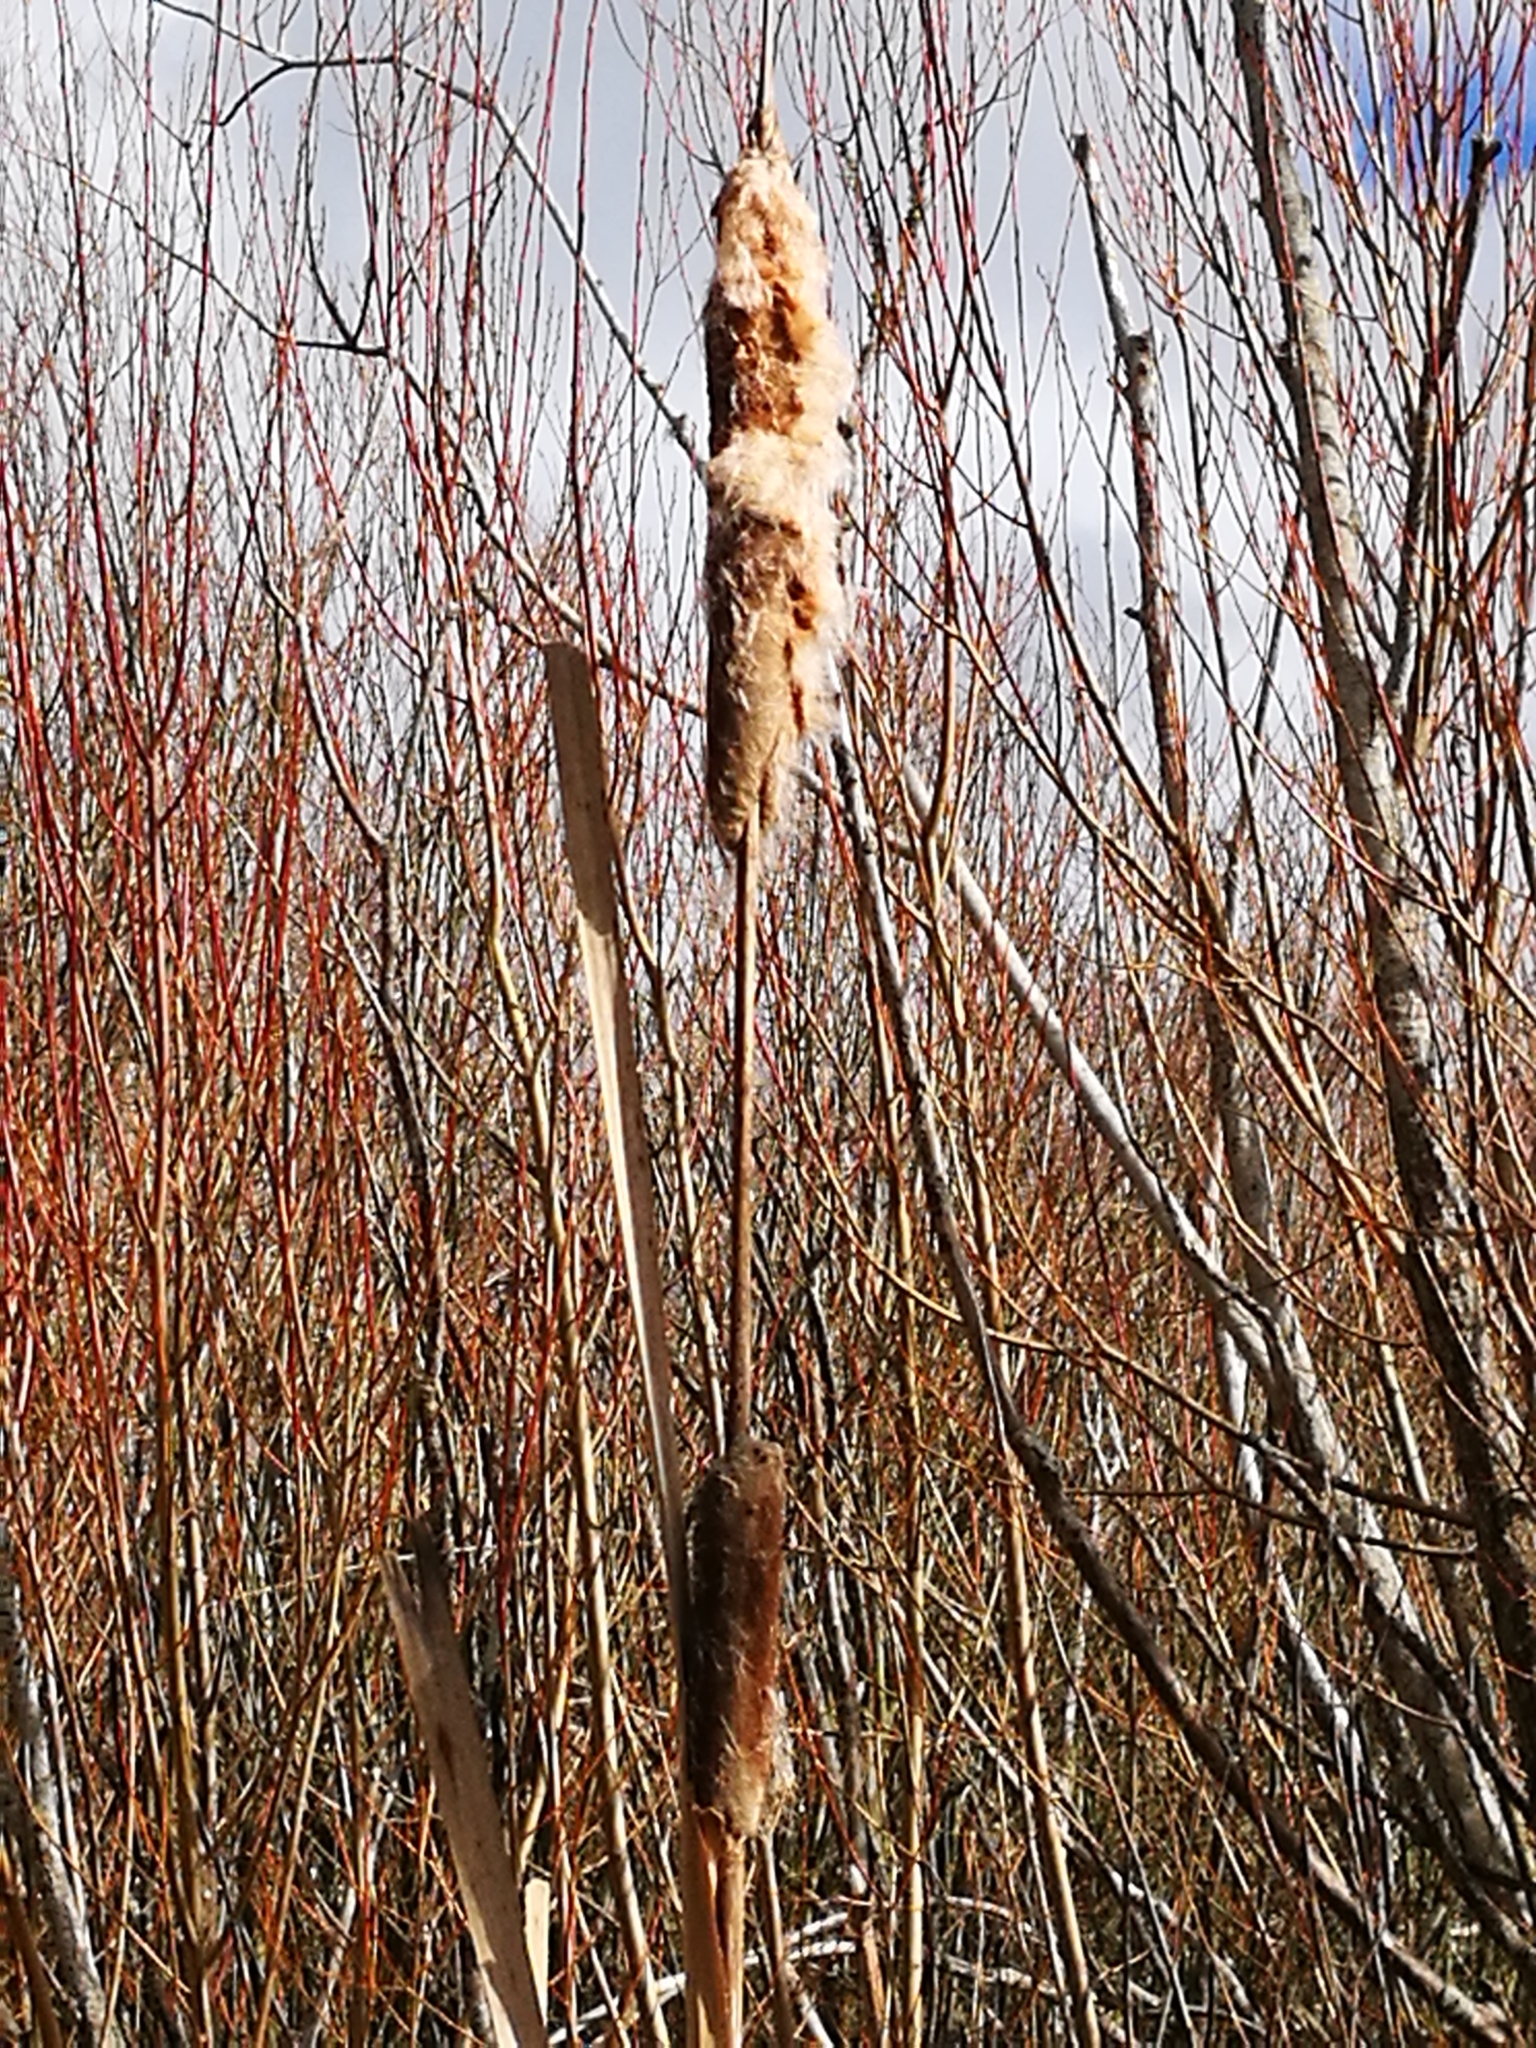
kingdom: Plantae
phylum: Tracheophyta
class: Liliopsida
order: Poales
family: Typhaceae
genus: Typha
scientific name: Typha orientalis
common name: Bullrush
